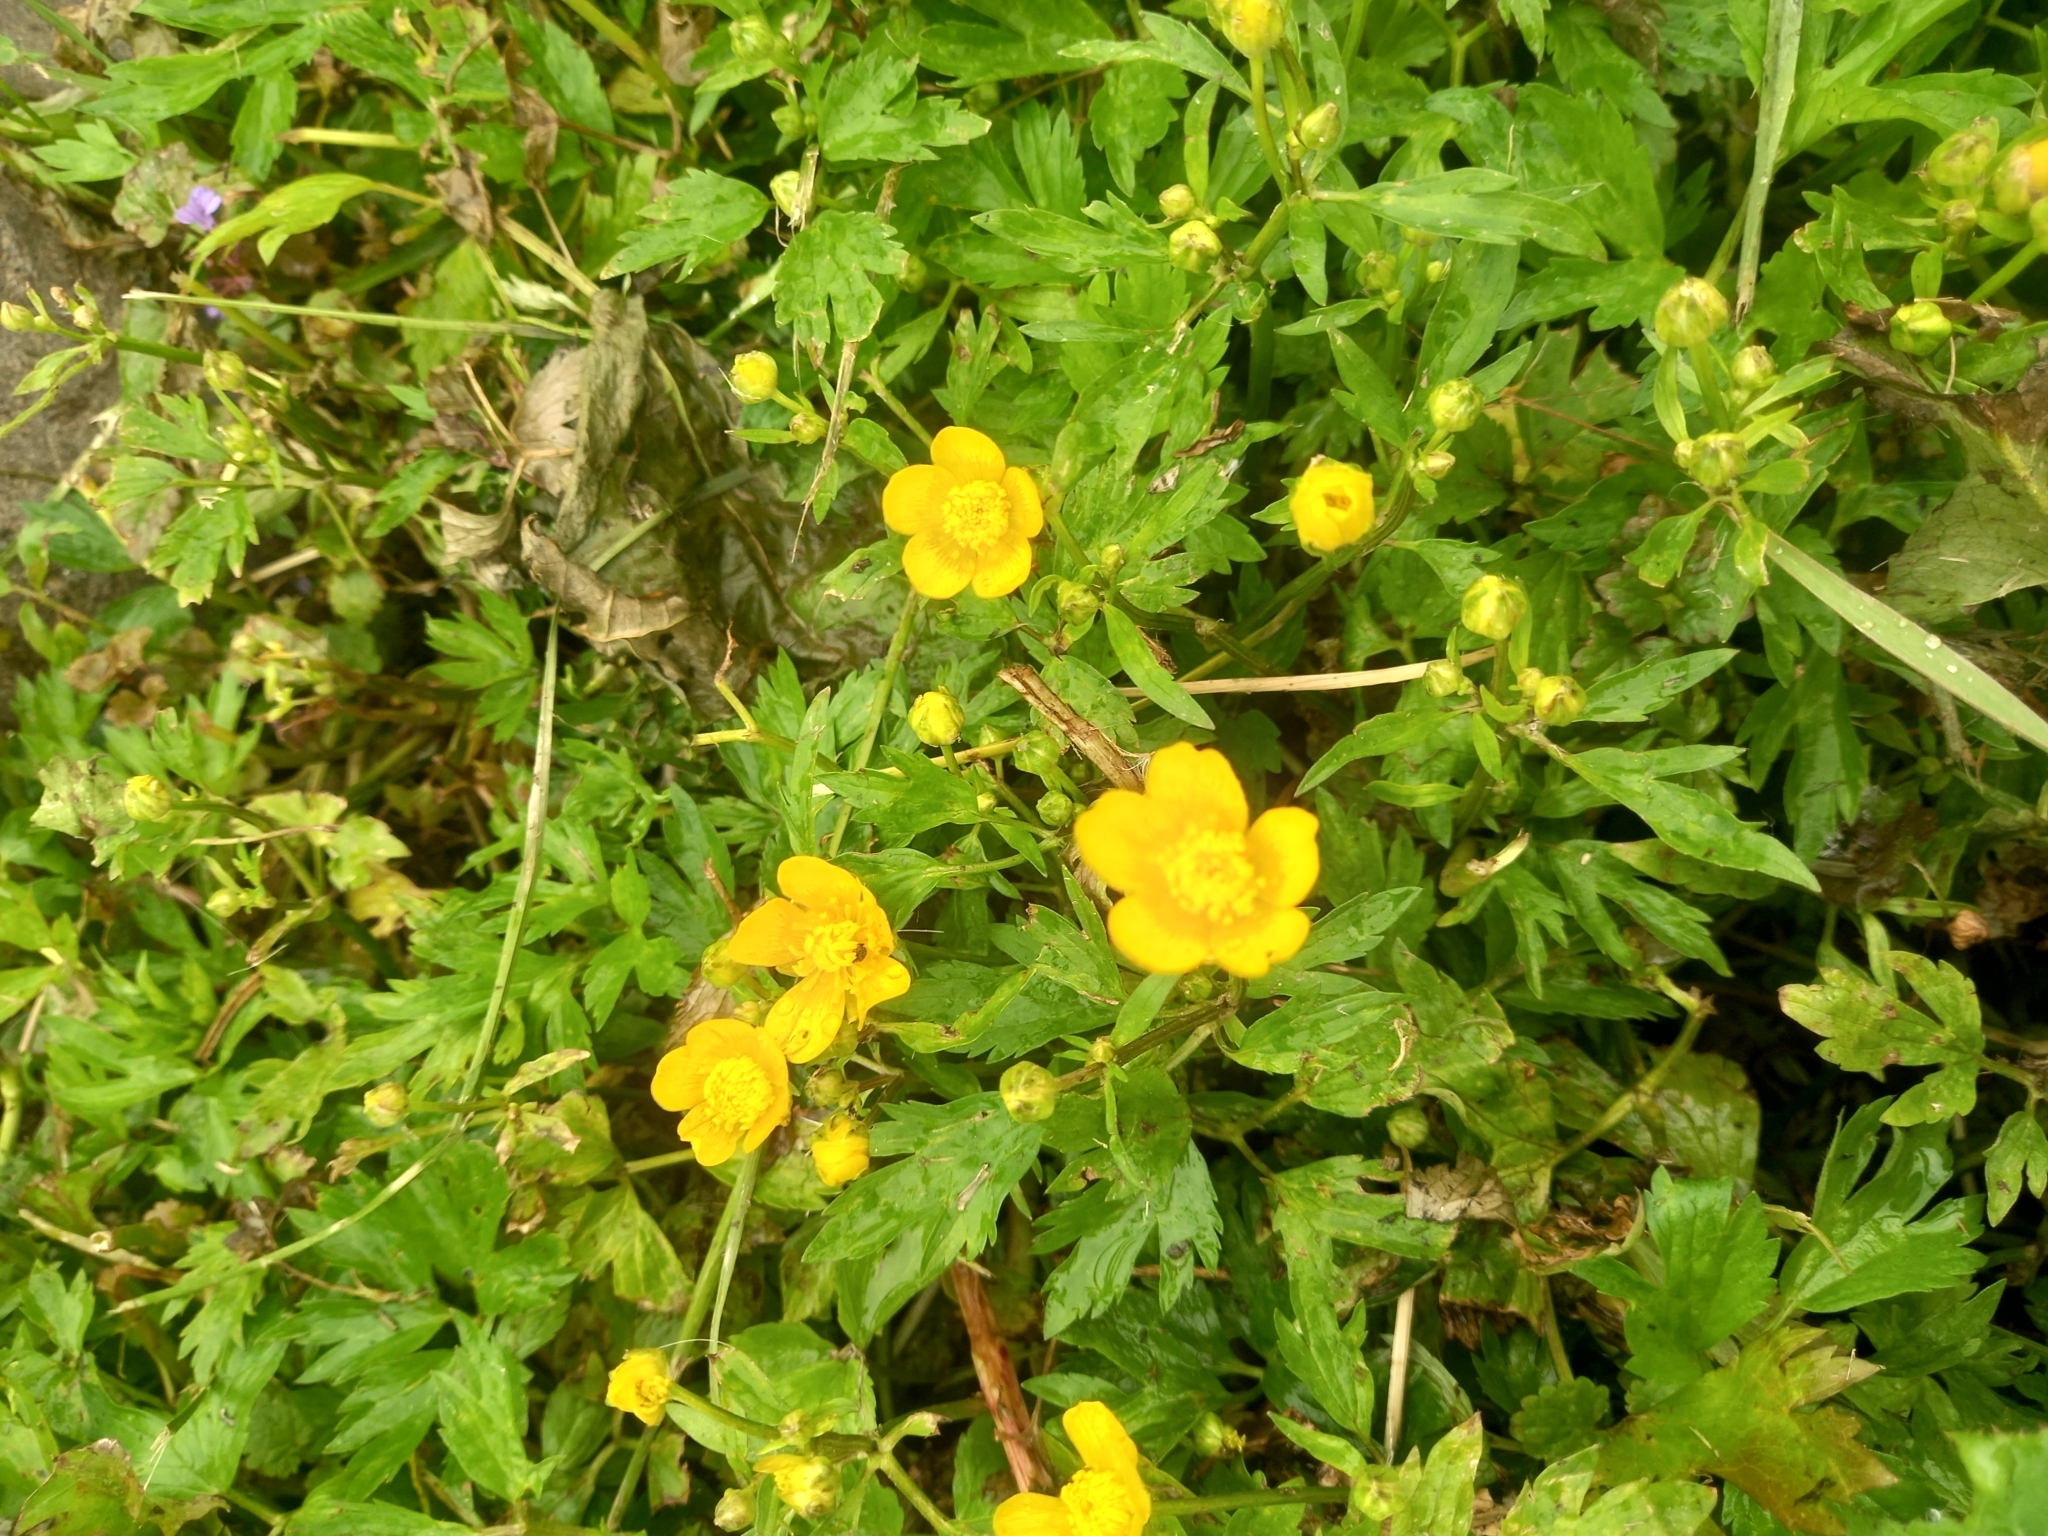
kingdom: Plantae
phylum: Tracheophyta
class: Magnoliopsida
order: Ranunculales
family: Ranunculaceae
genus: Ranunculus
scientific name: Ranunculus repens
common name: Creeping buttercup
